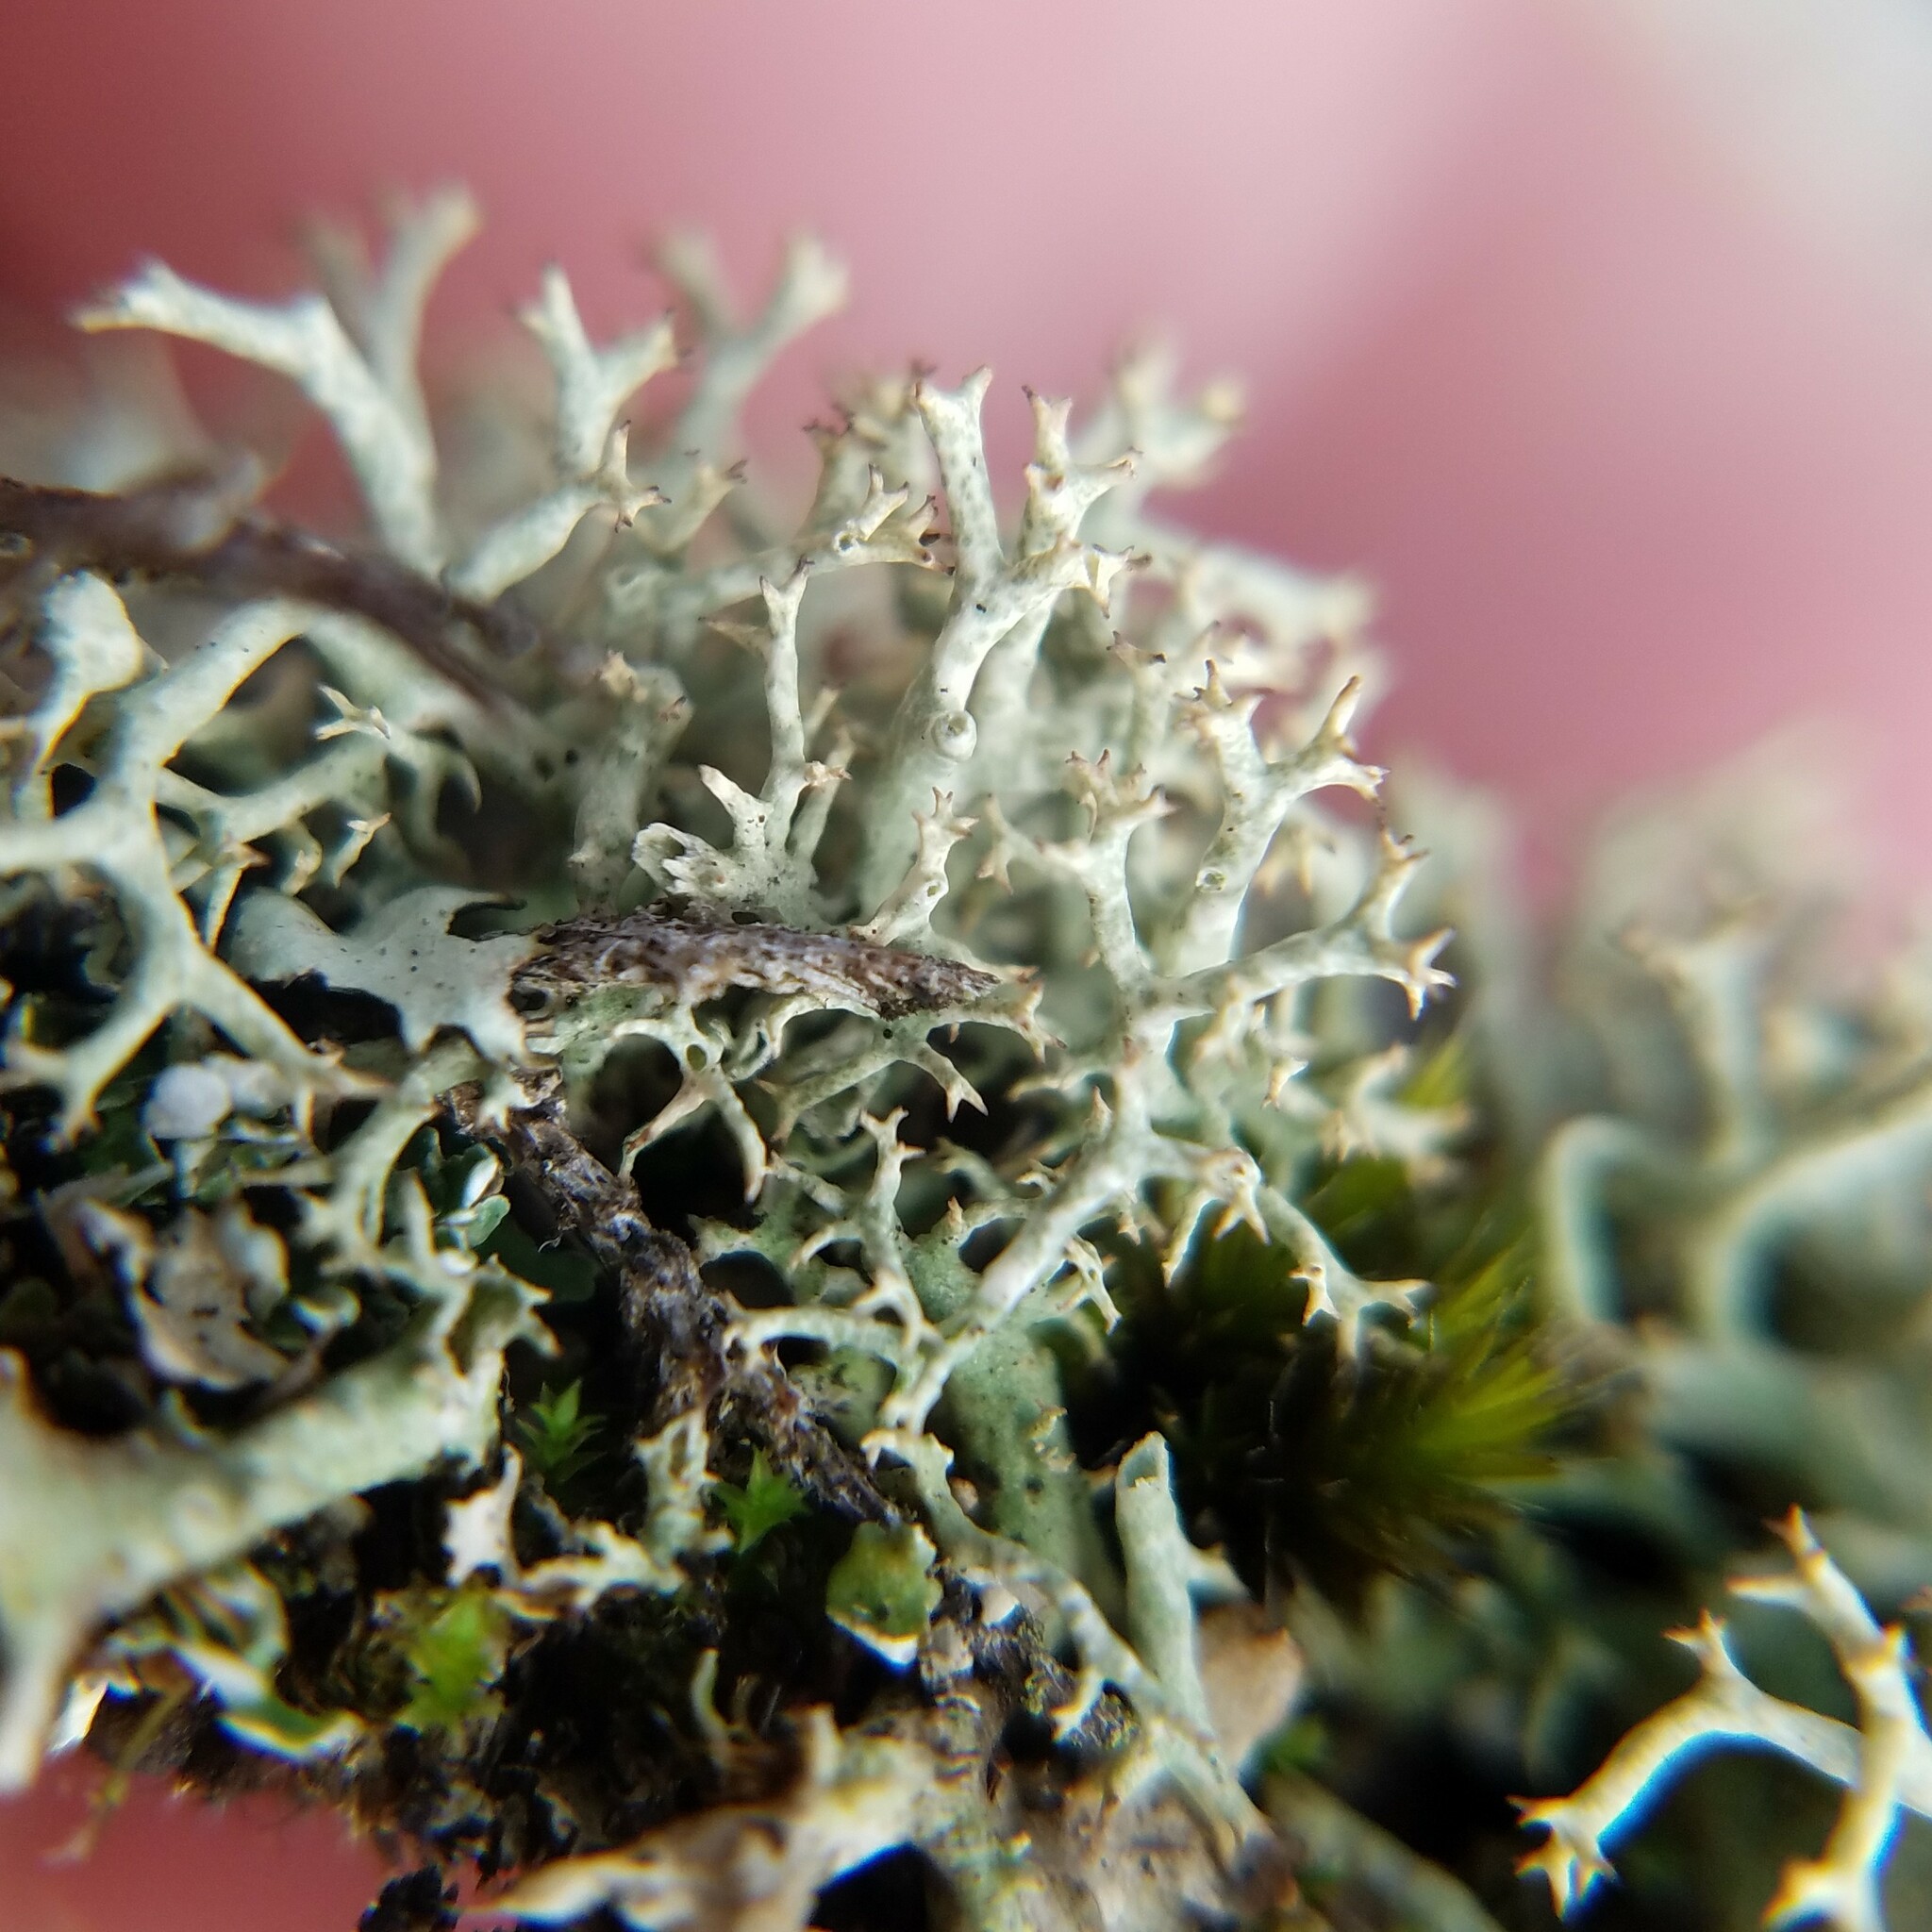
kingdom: Fungi
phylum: Ascomycota
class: Lecanoromycetes
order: Lecanorales
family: Cladoniaceae
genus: Cladonia
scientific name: Cladonia uncialis
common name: Thorn lichen
